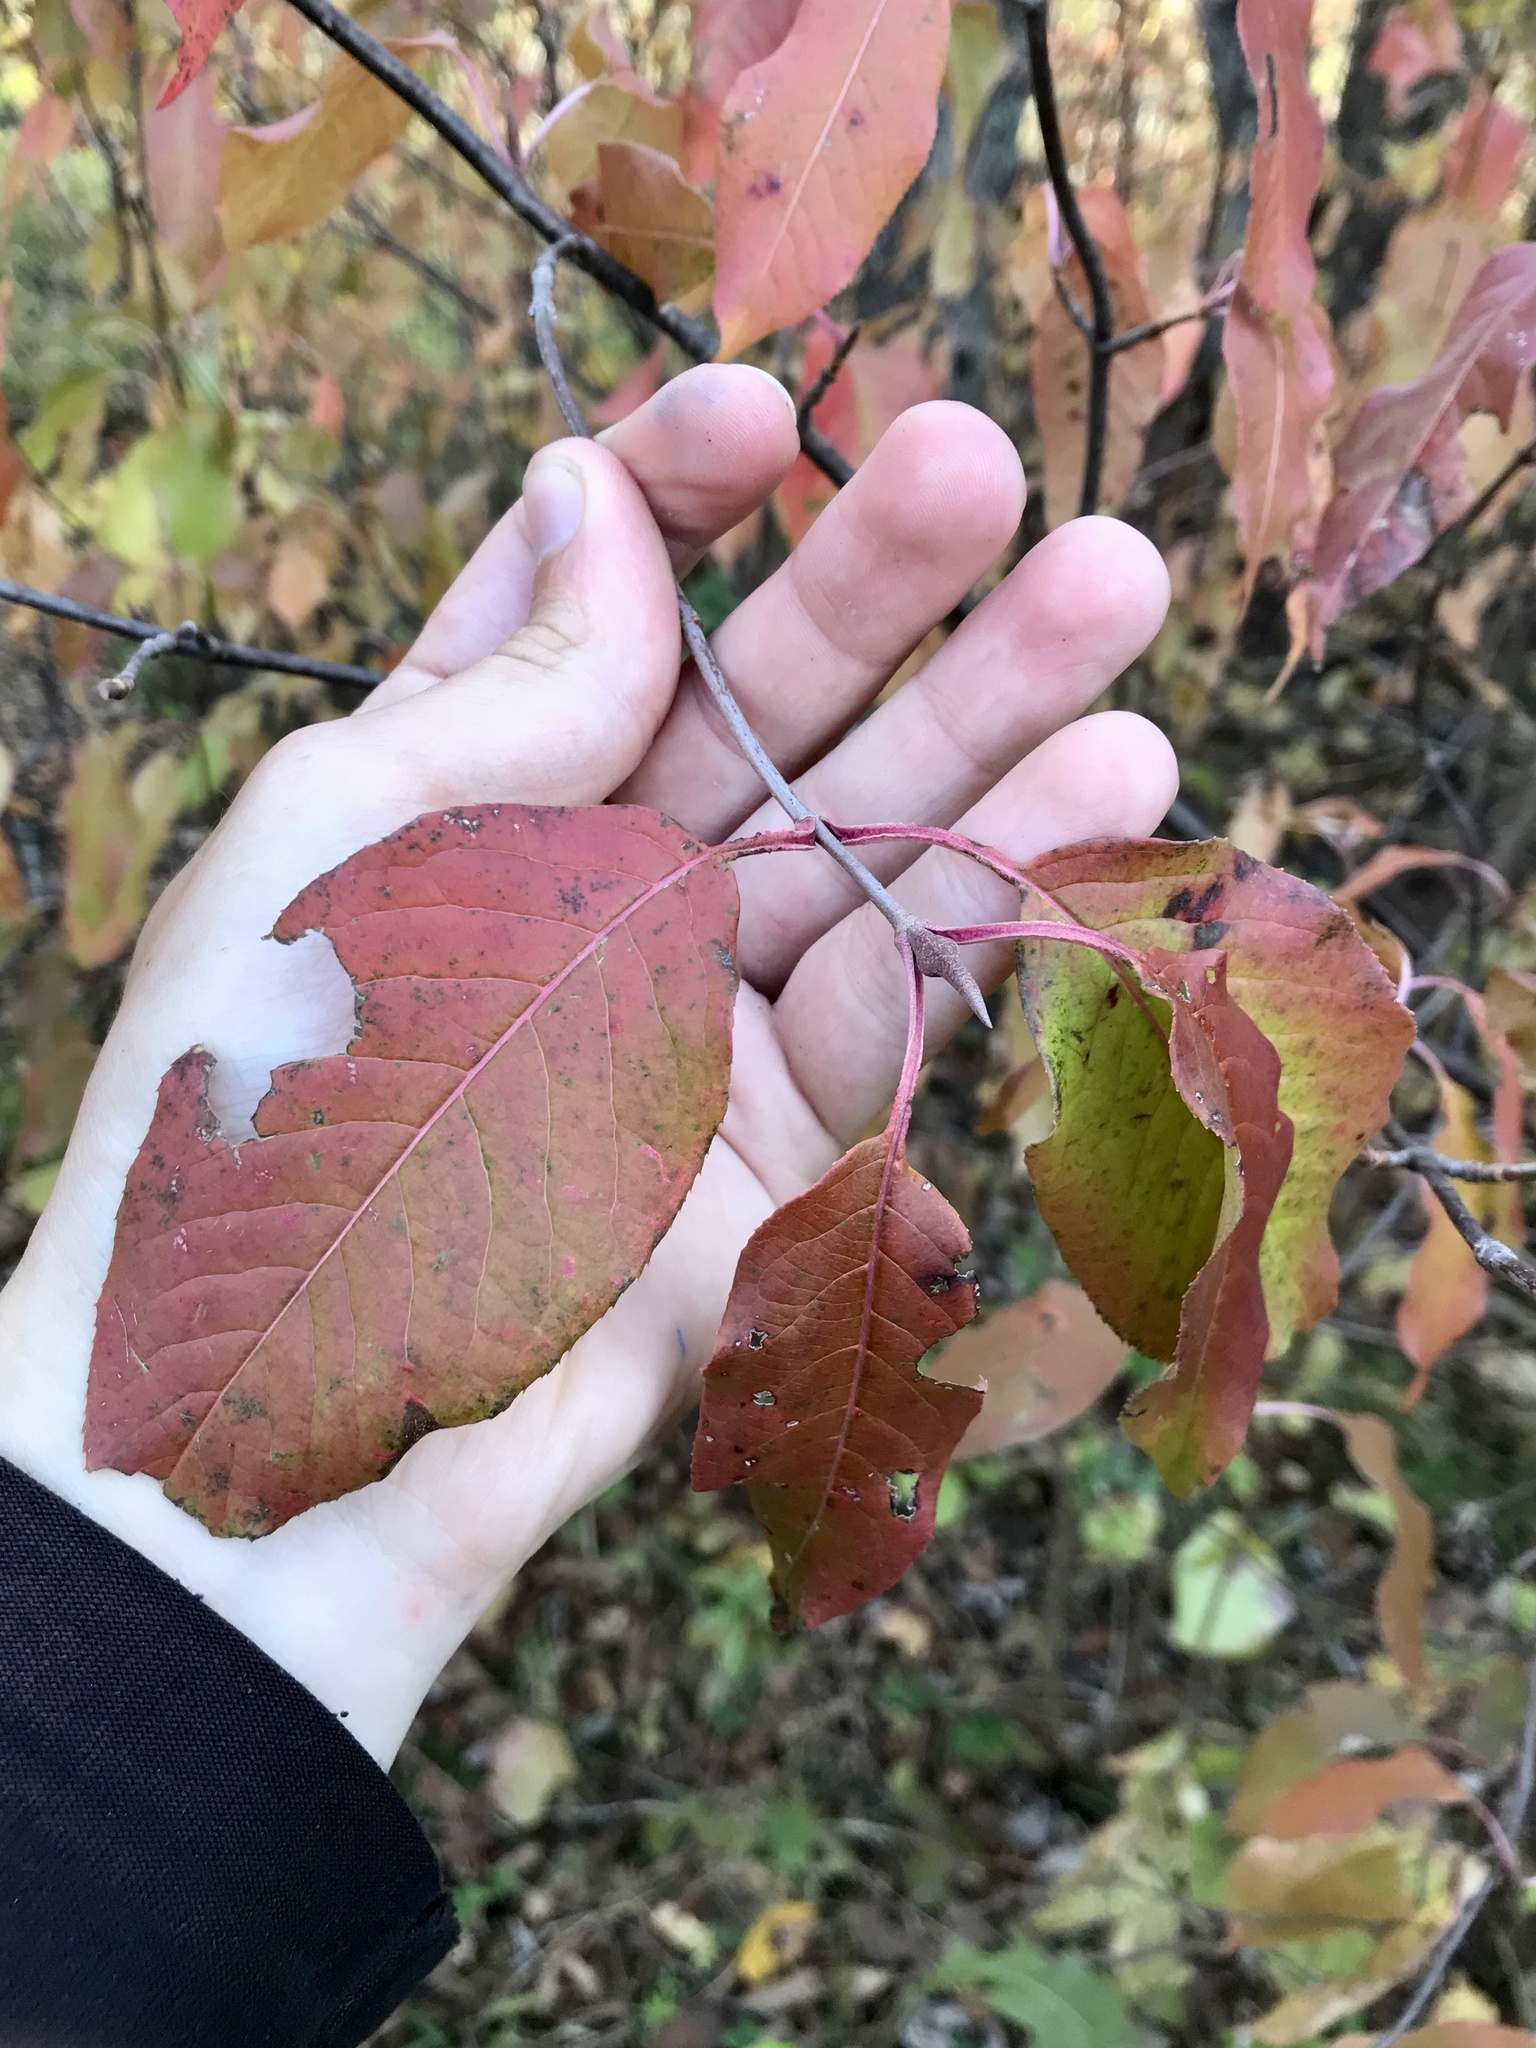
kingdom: Plantae
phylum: Tracheophyta
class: Magnoliopsida
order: Dipsacales
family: Viburnaceae
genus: Viburnum
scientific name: Viburnum lentago
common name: Black haw
